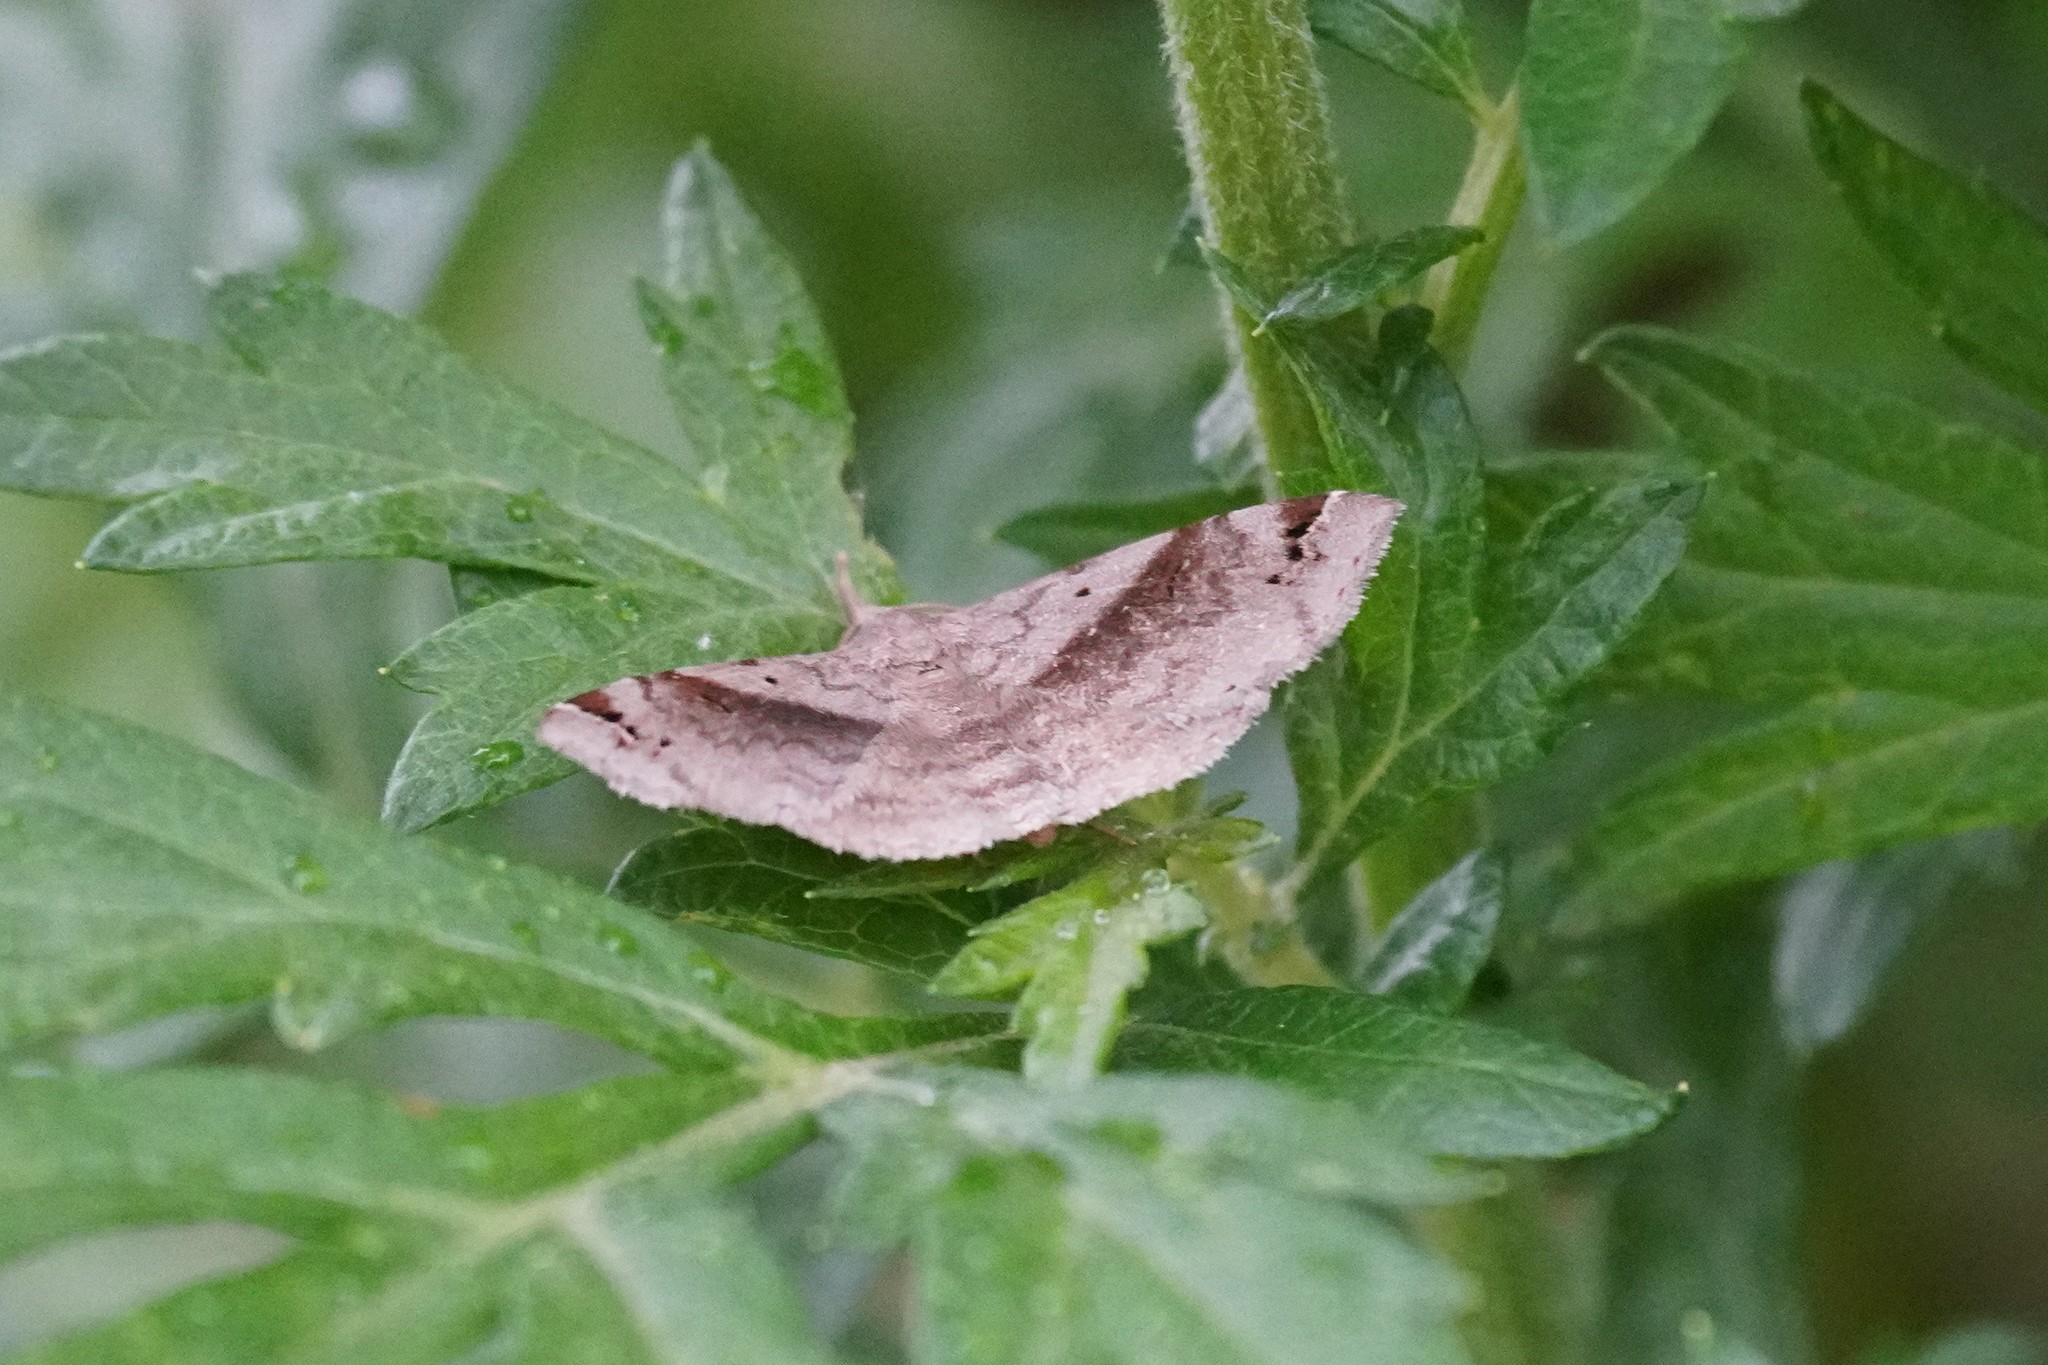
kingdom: Animalia
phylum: Arthropoda
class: Insecta
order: Lepidoptera
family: Erebidae
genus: Spargaloma
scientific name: Spargaloma sexpunctata
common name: Six-spotted gray
